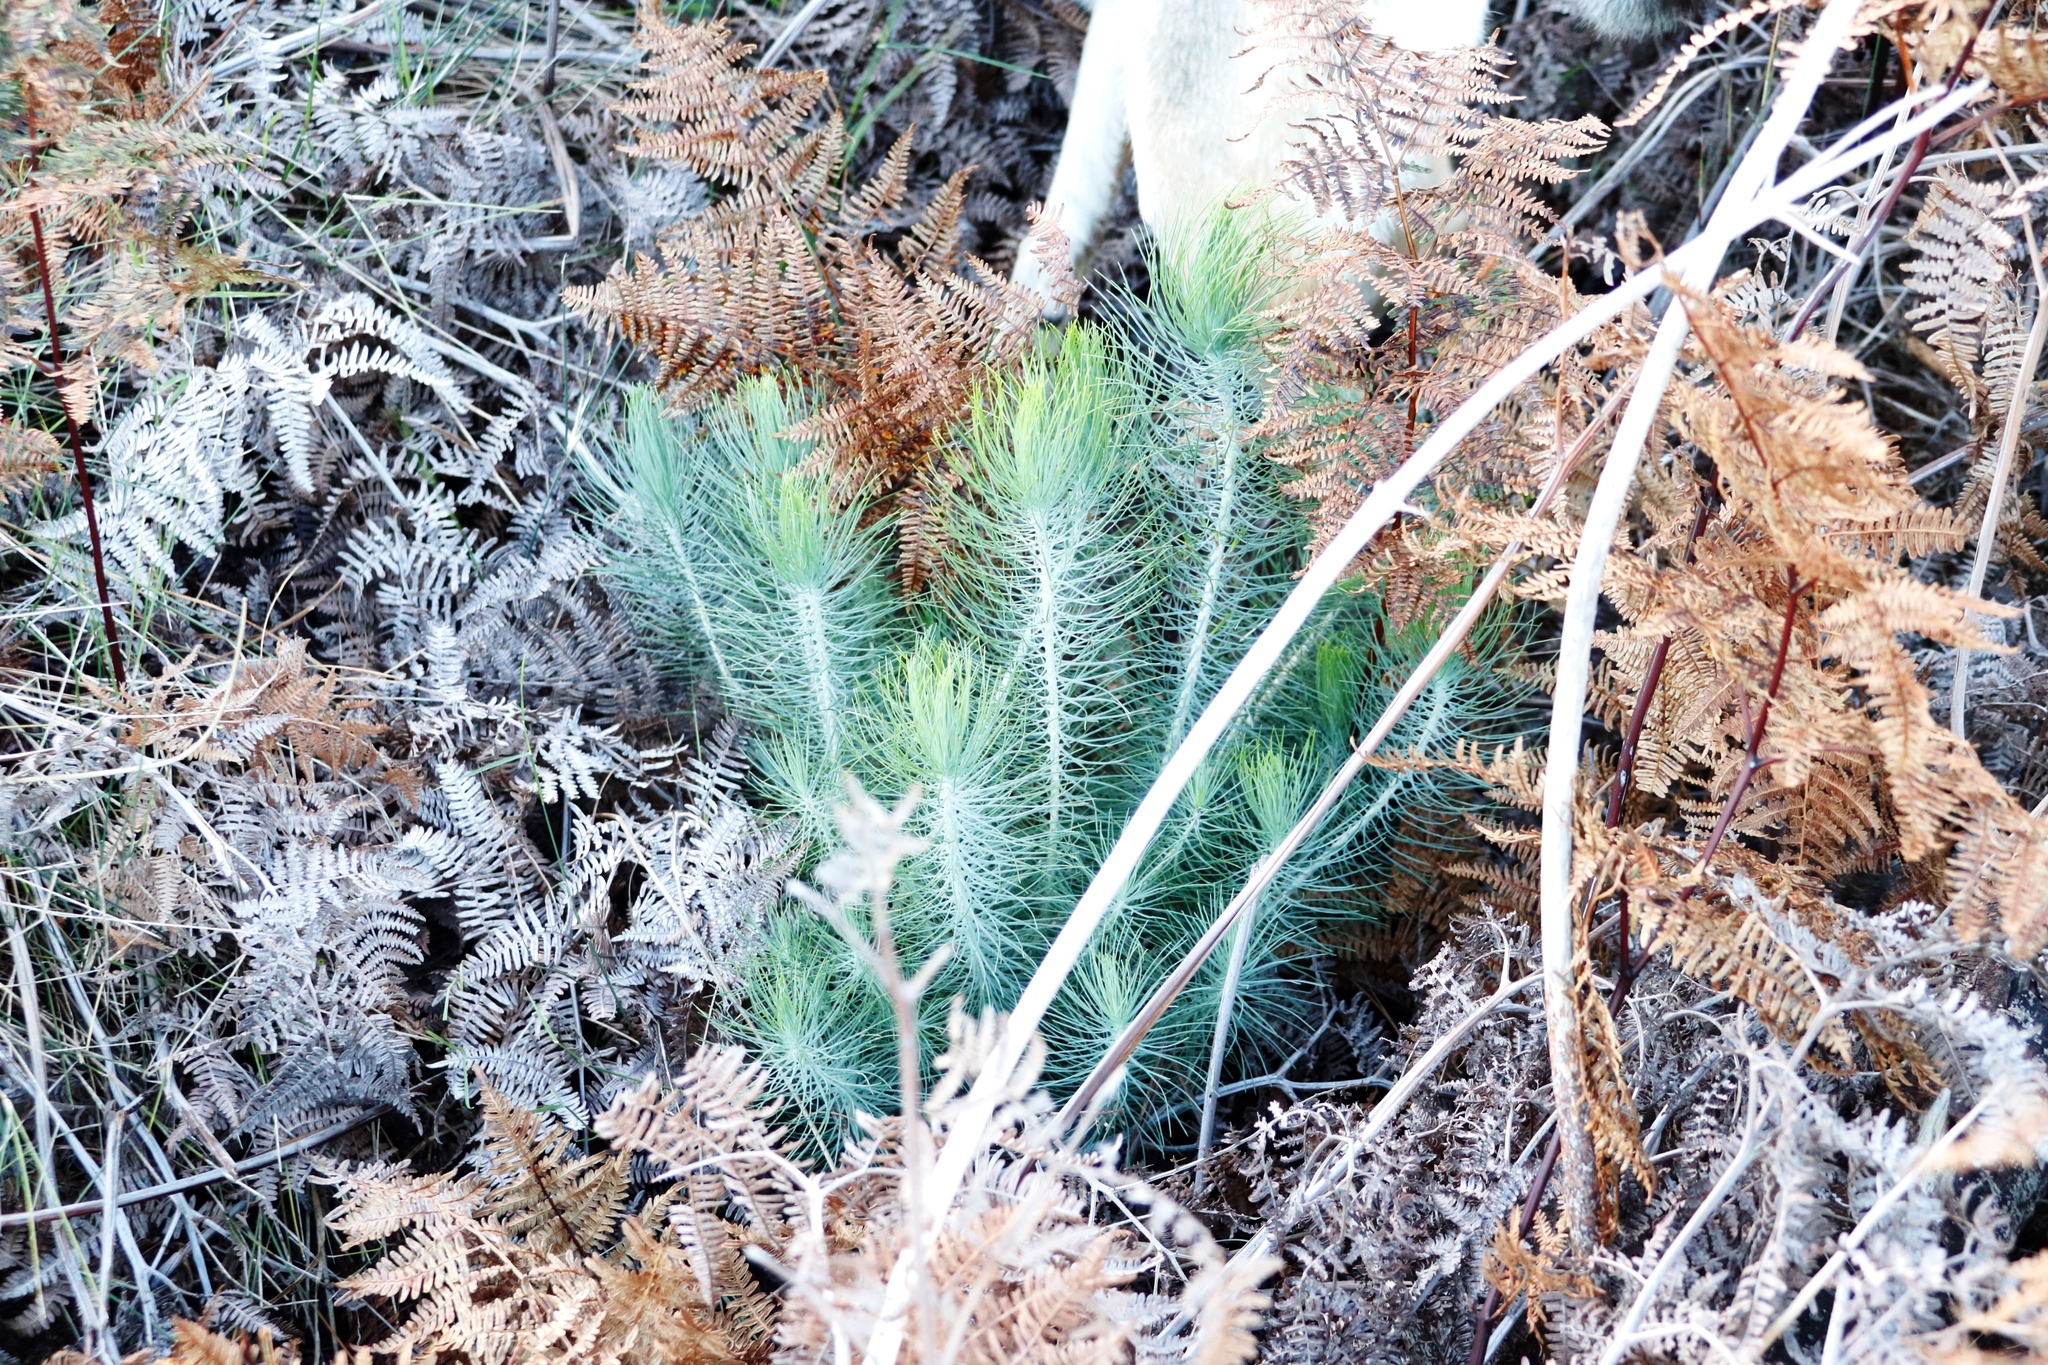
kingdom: Plantae
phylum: Tracheophyta
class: Pinopsida
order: Pinales
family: Pinaceae
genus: Pinus
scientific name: Pinus canariensis
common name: Canary islands pine
